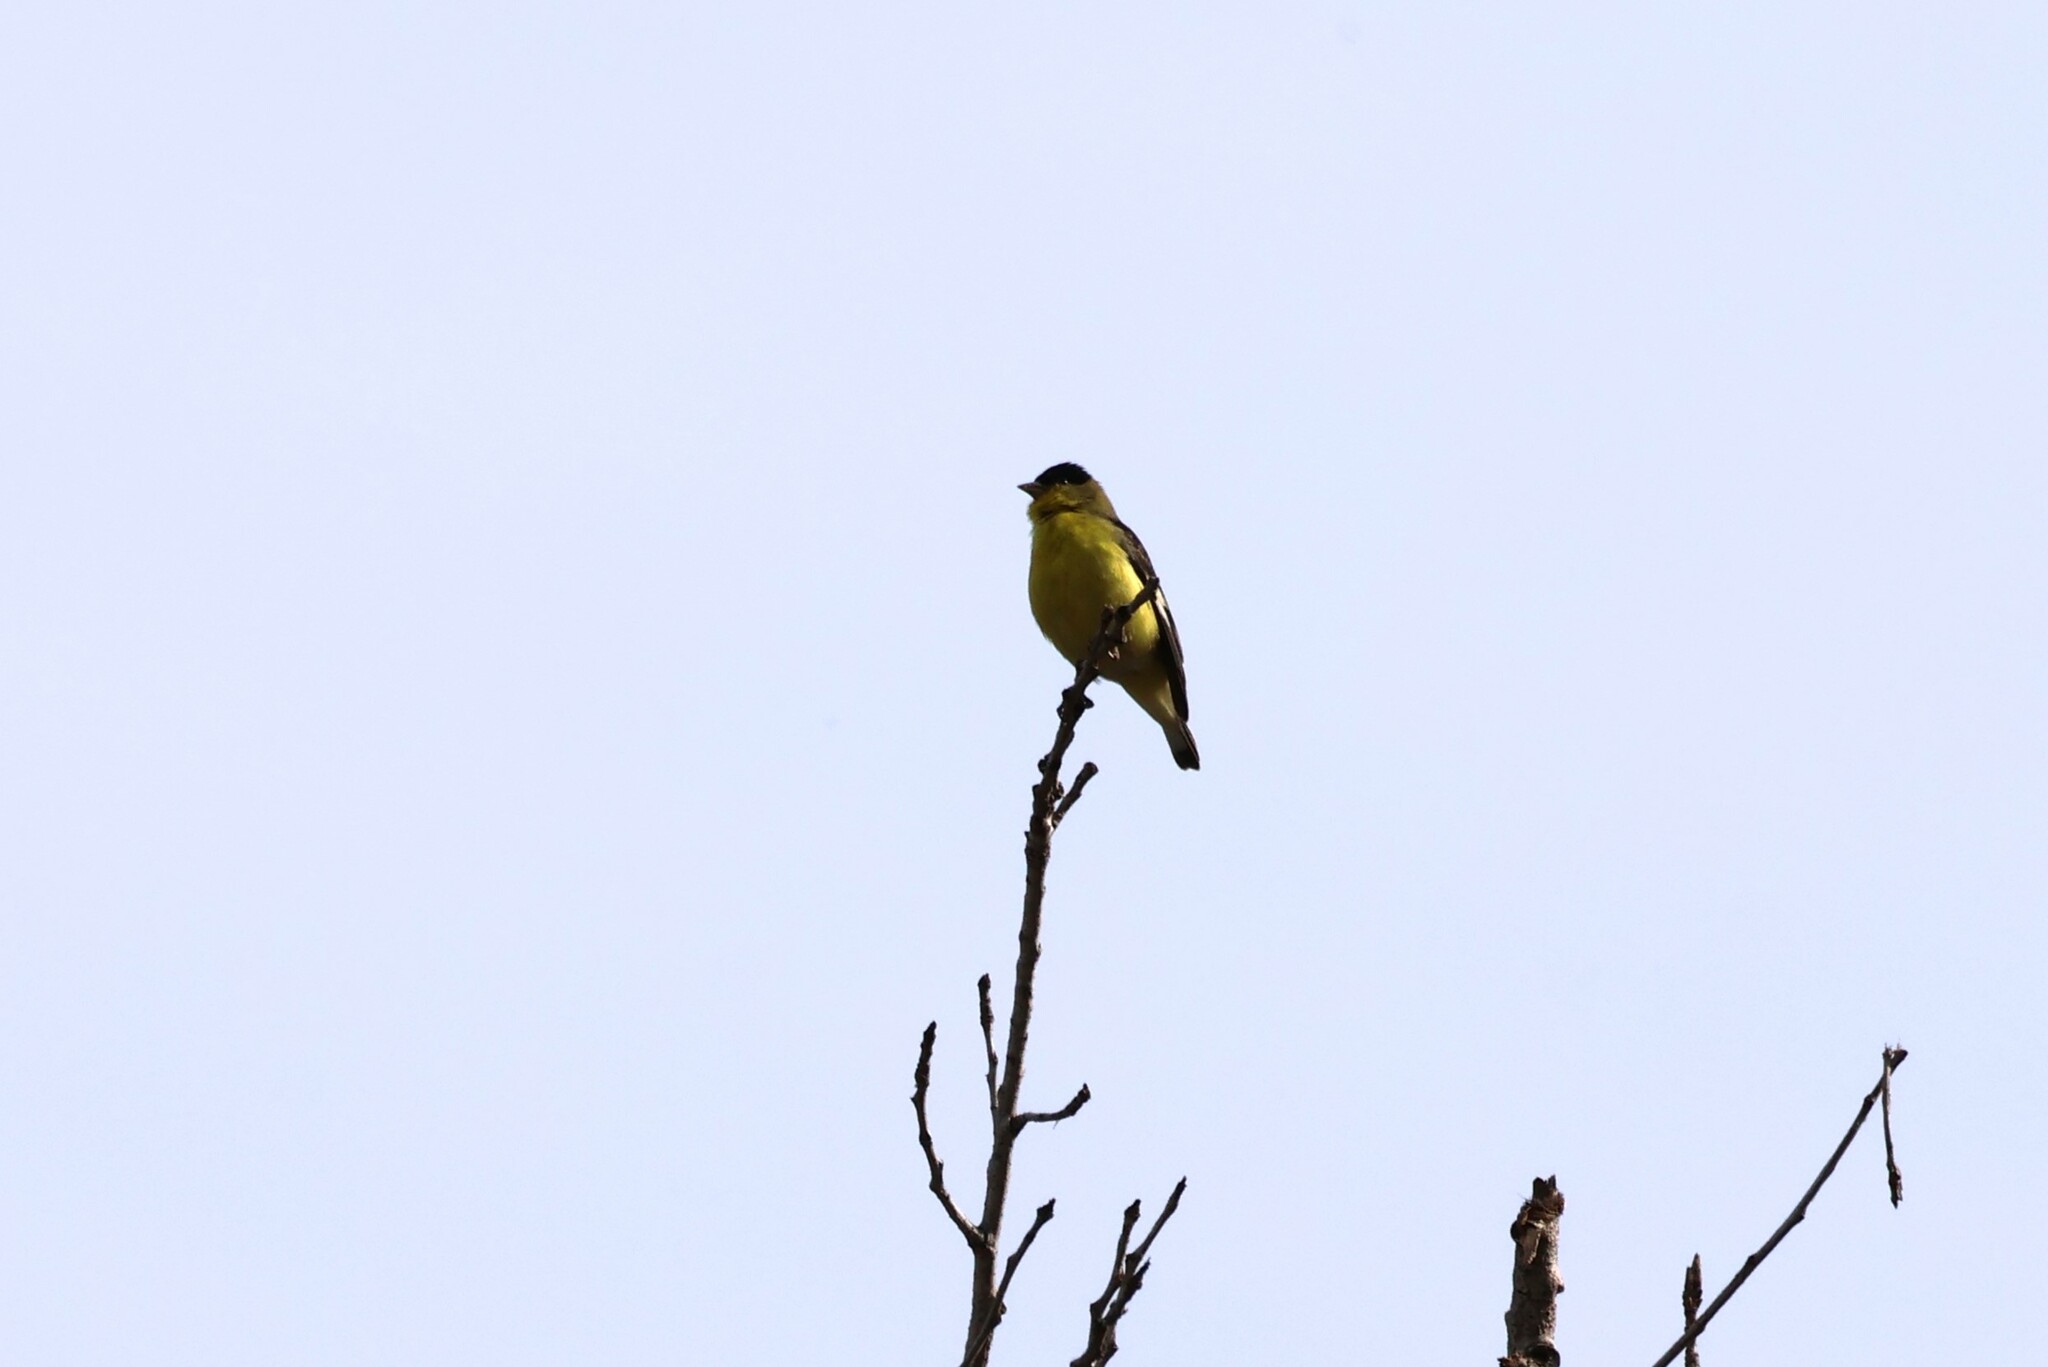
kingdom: Animalia
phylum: Chordata
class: Aves
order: Passeriformes
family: Fringillidae
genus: Spinus
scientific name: Spinus psaltria
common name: Lesser goldfinch
